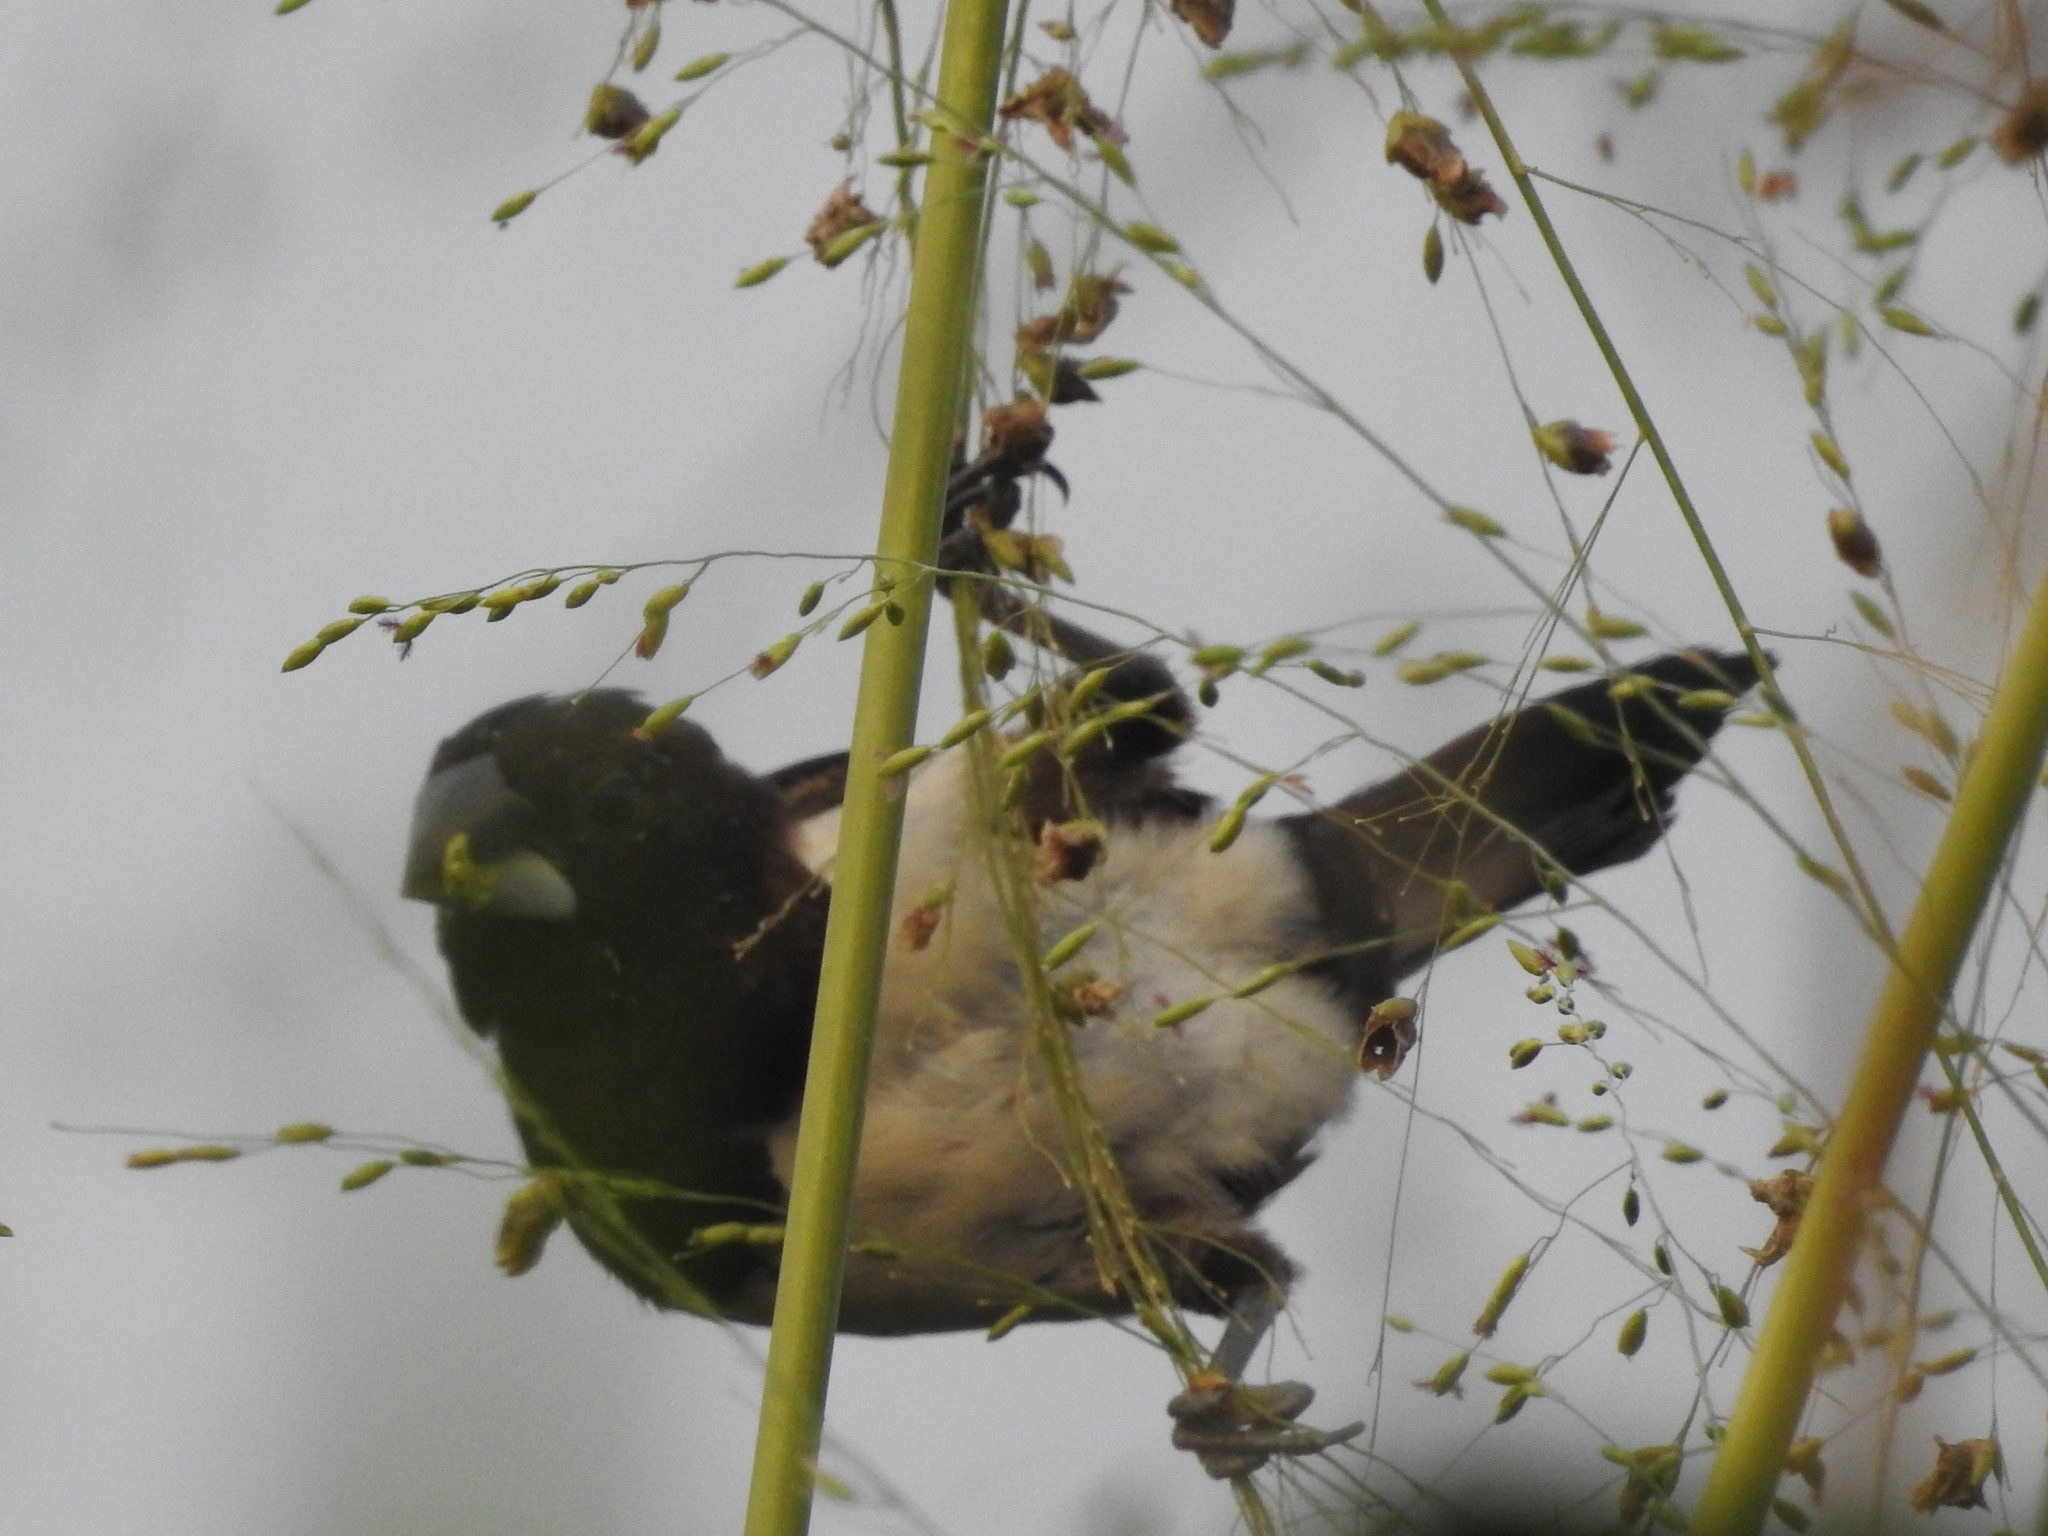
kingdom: Animalia
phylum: Chordata
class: Aves
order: Passeriformes
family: Estrildidae
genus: Lonchura
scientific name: Lonchura striata
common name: White-rumped munia
